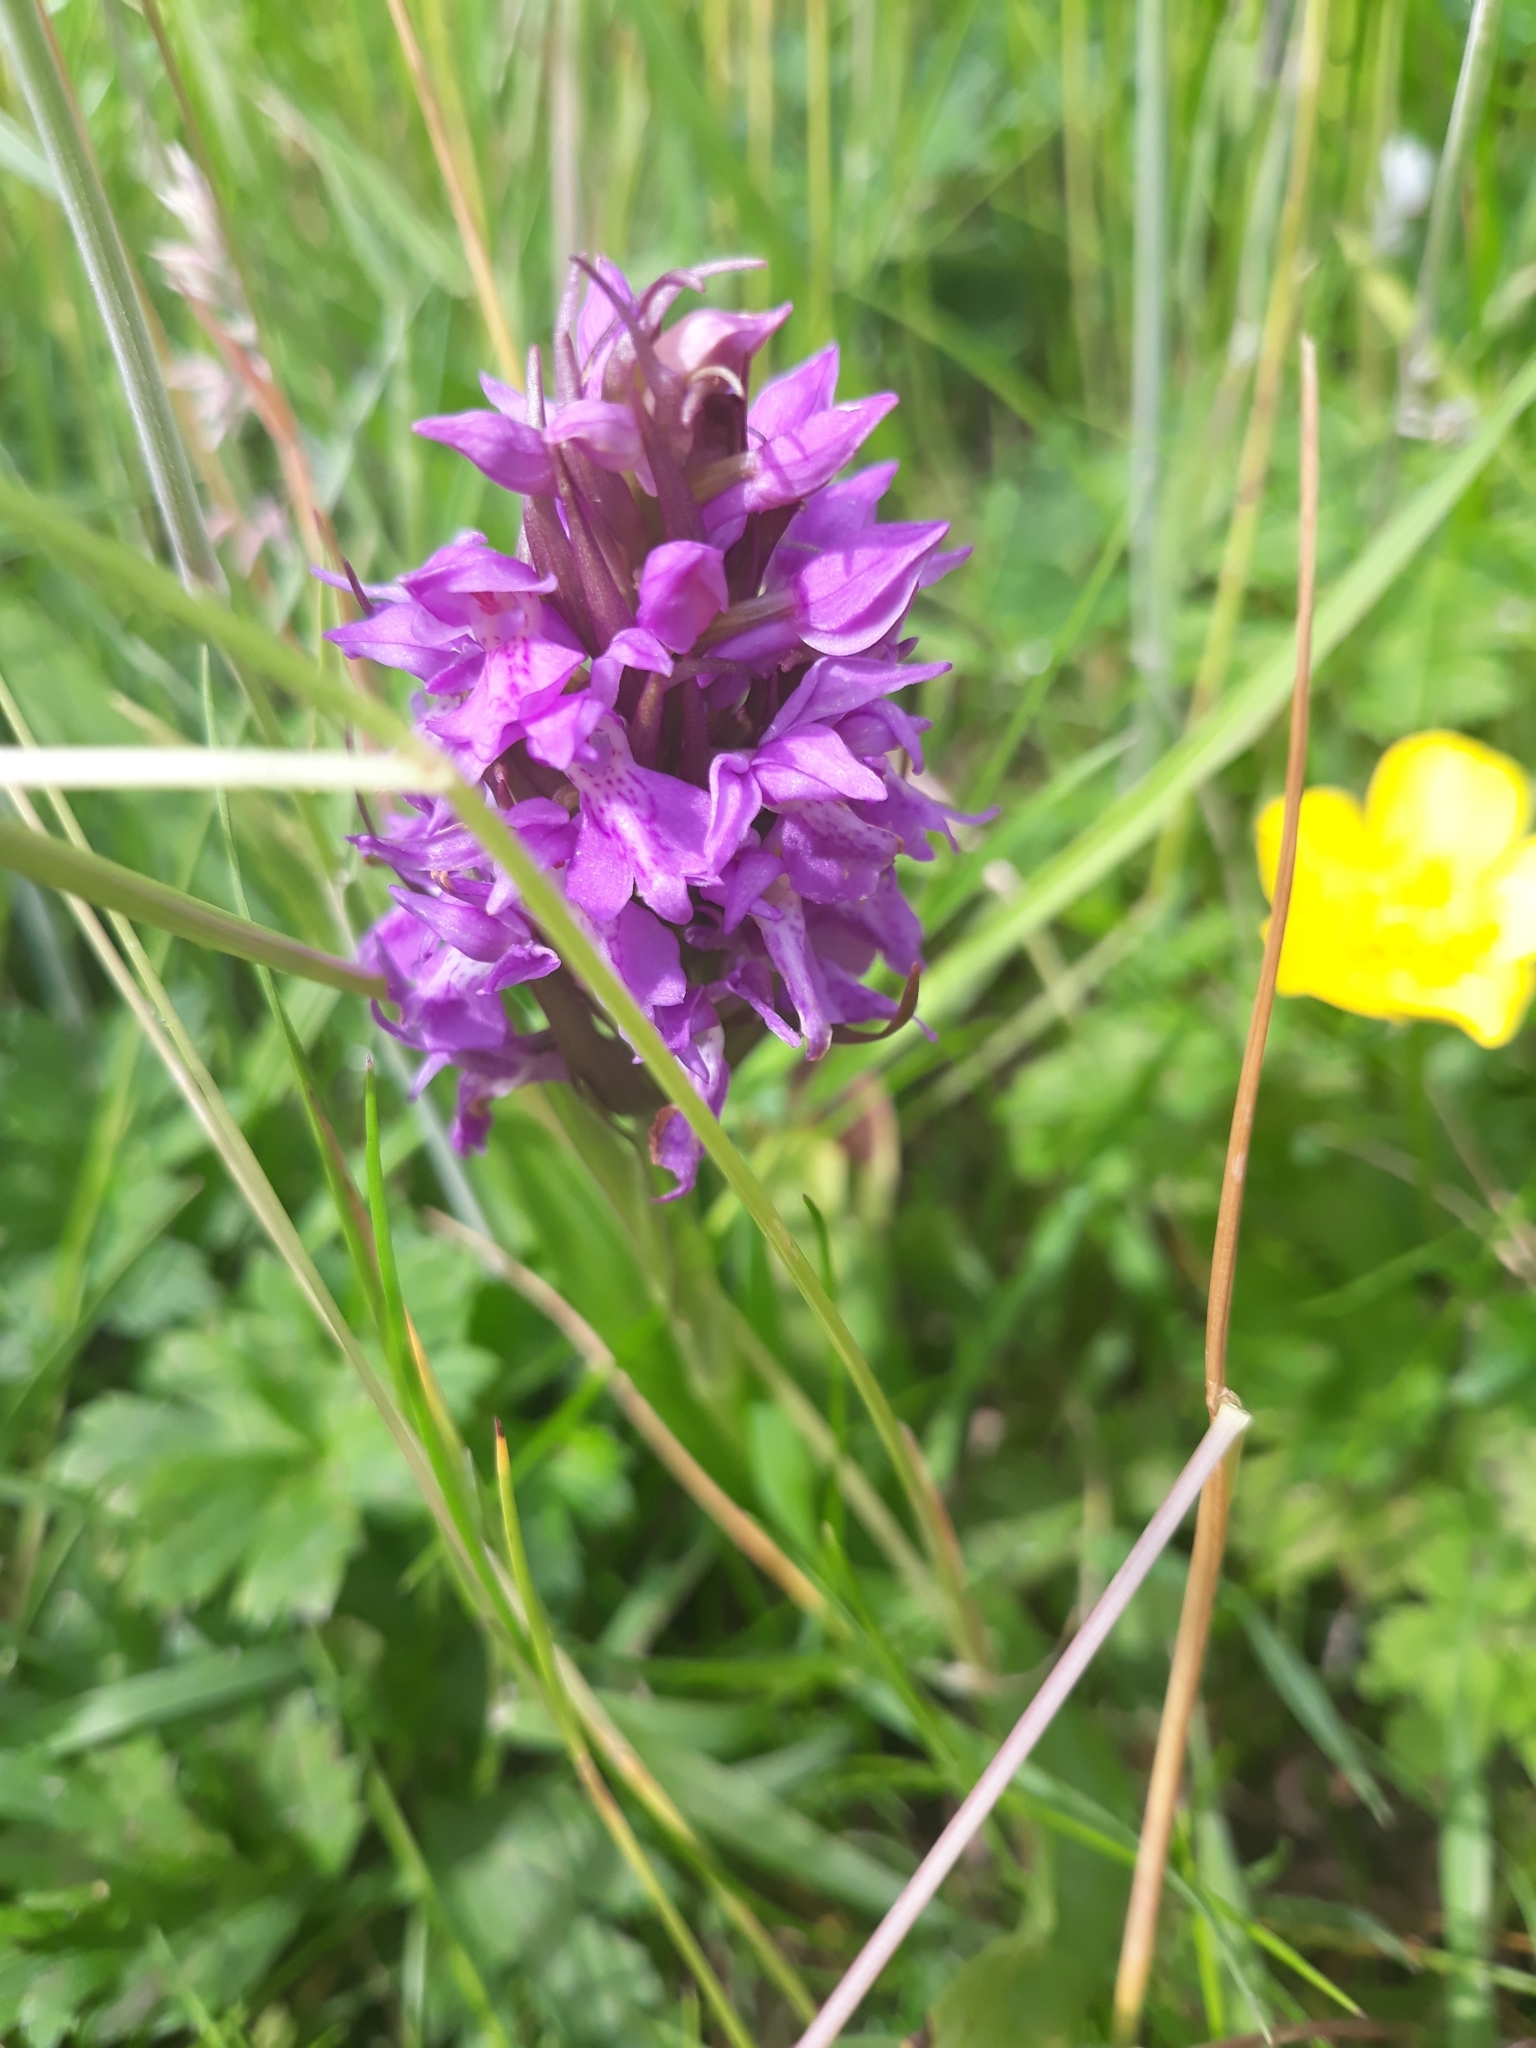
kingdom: Plantae
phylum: Tracheophyta
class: Liliopsida
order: Asparagales
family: Orchidaceae
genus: Dactylorhiza
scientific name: Dactylorhiza majalis
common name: Marsh orchid
